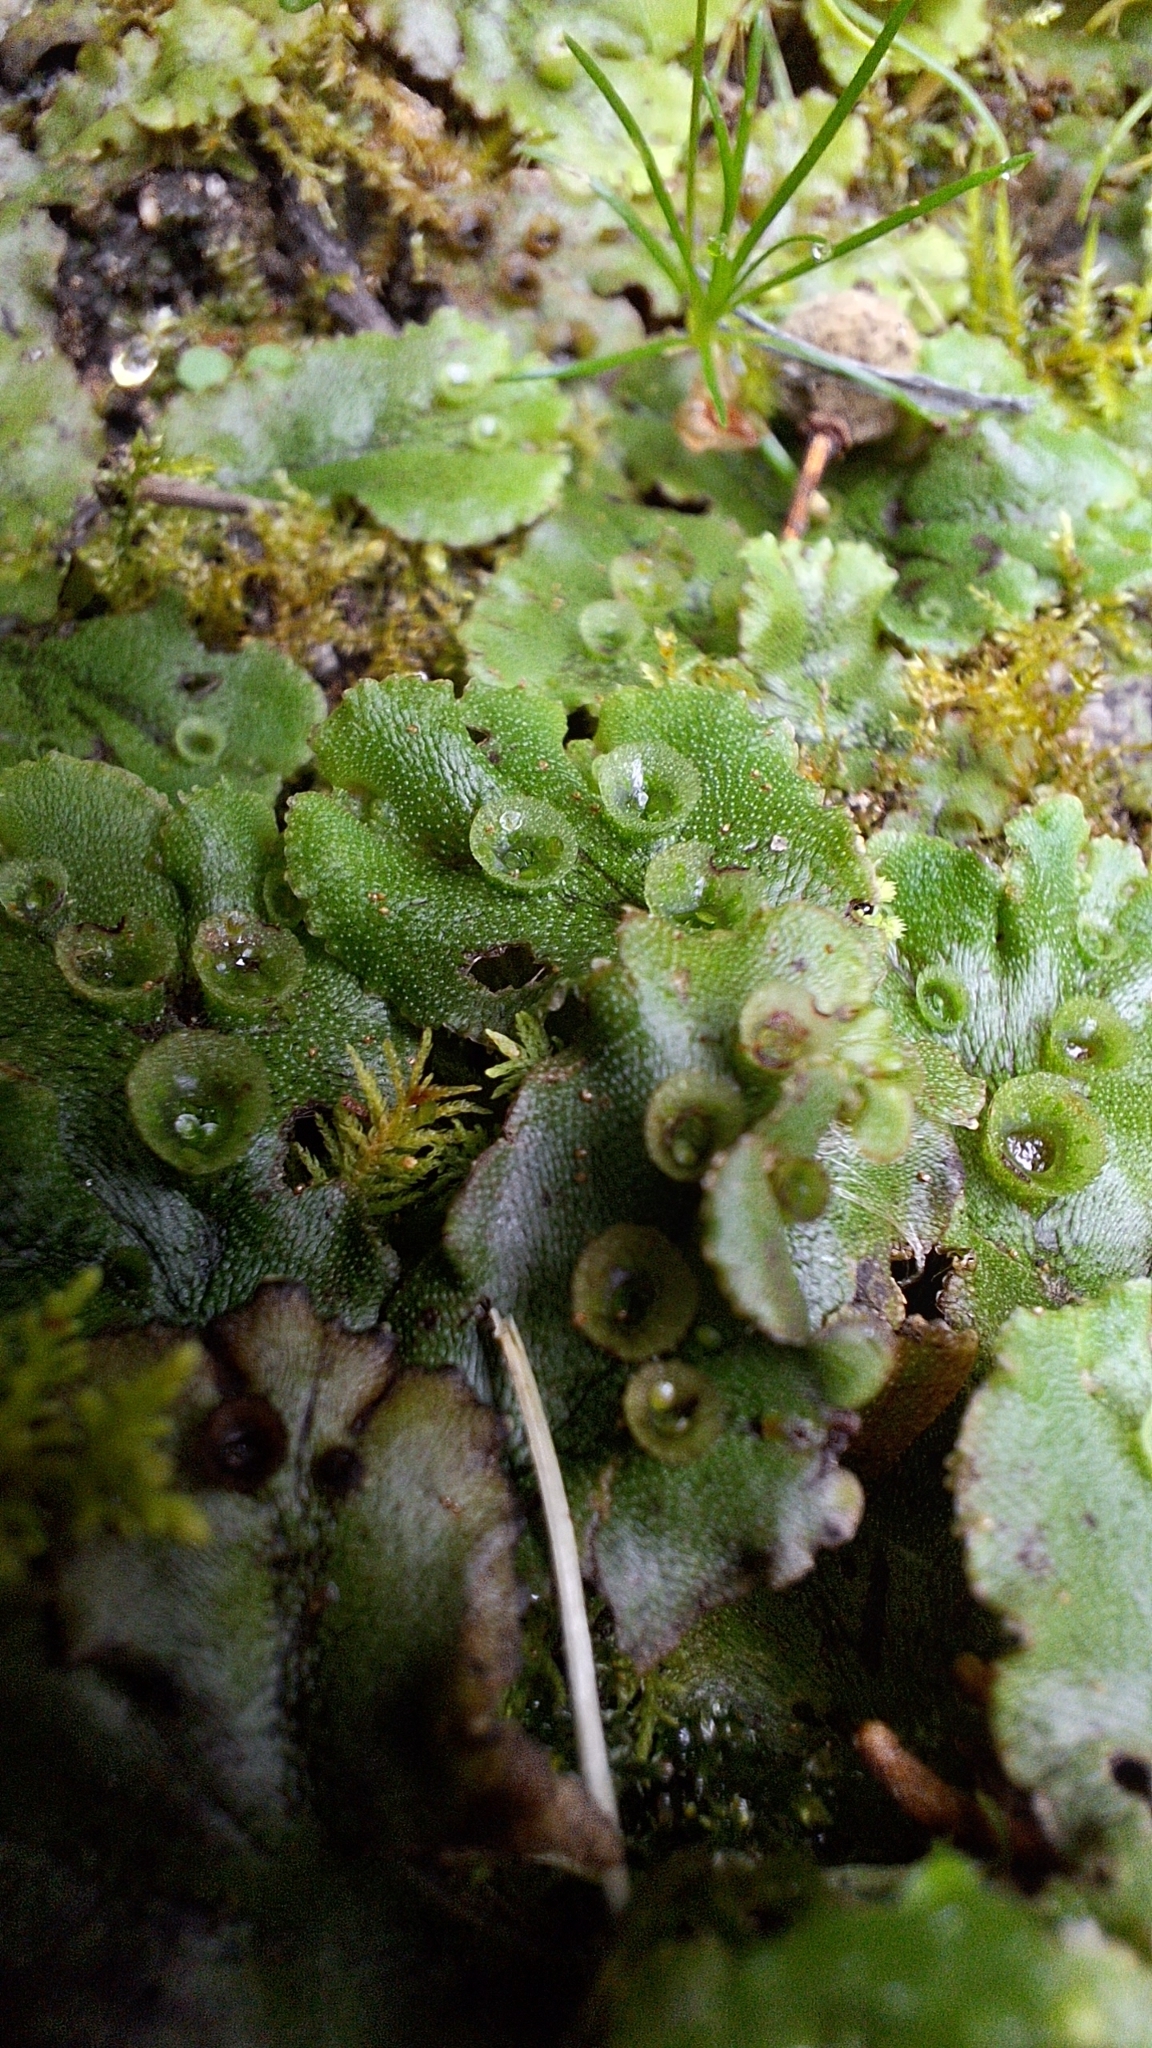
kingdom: Plantae
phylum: Marchantiophyta
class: Marchantiopsida
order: Marchantiales
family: Marchantiaceae
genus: Marchantia
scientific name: Marchantia polymorpha
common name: Common liverwort
